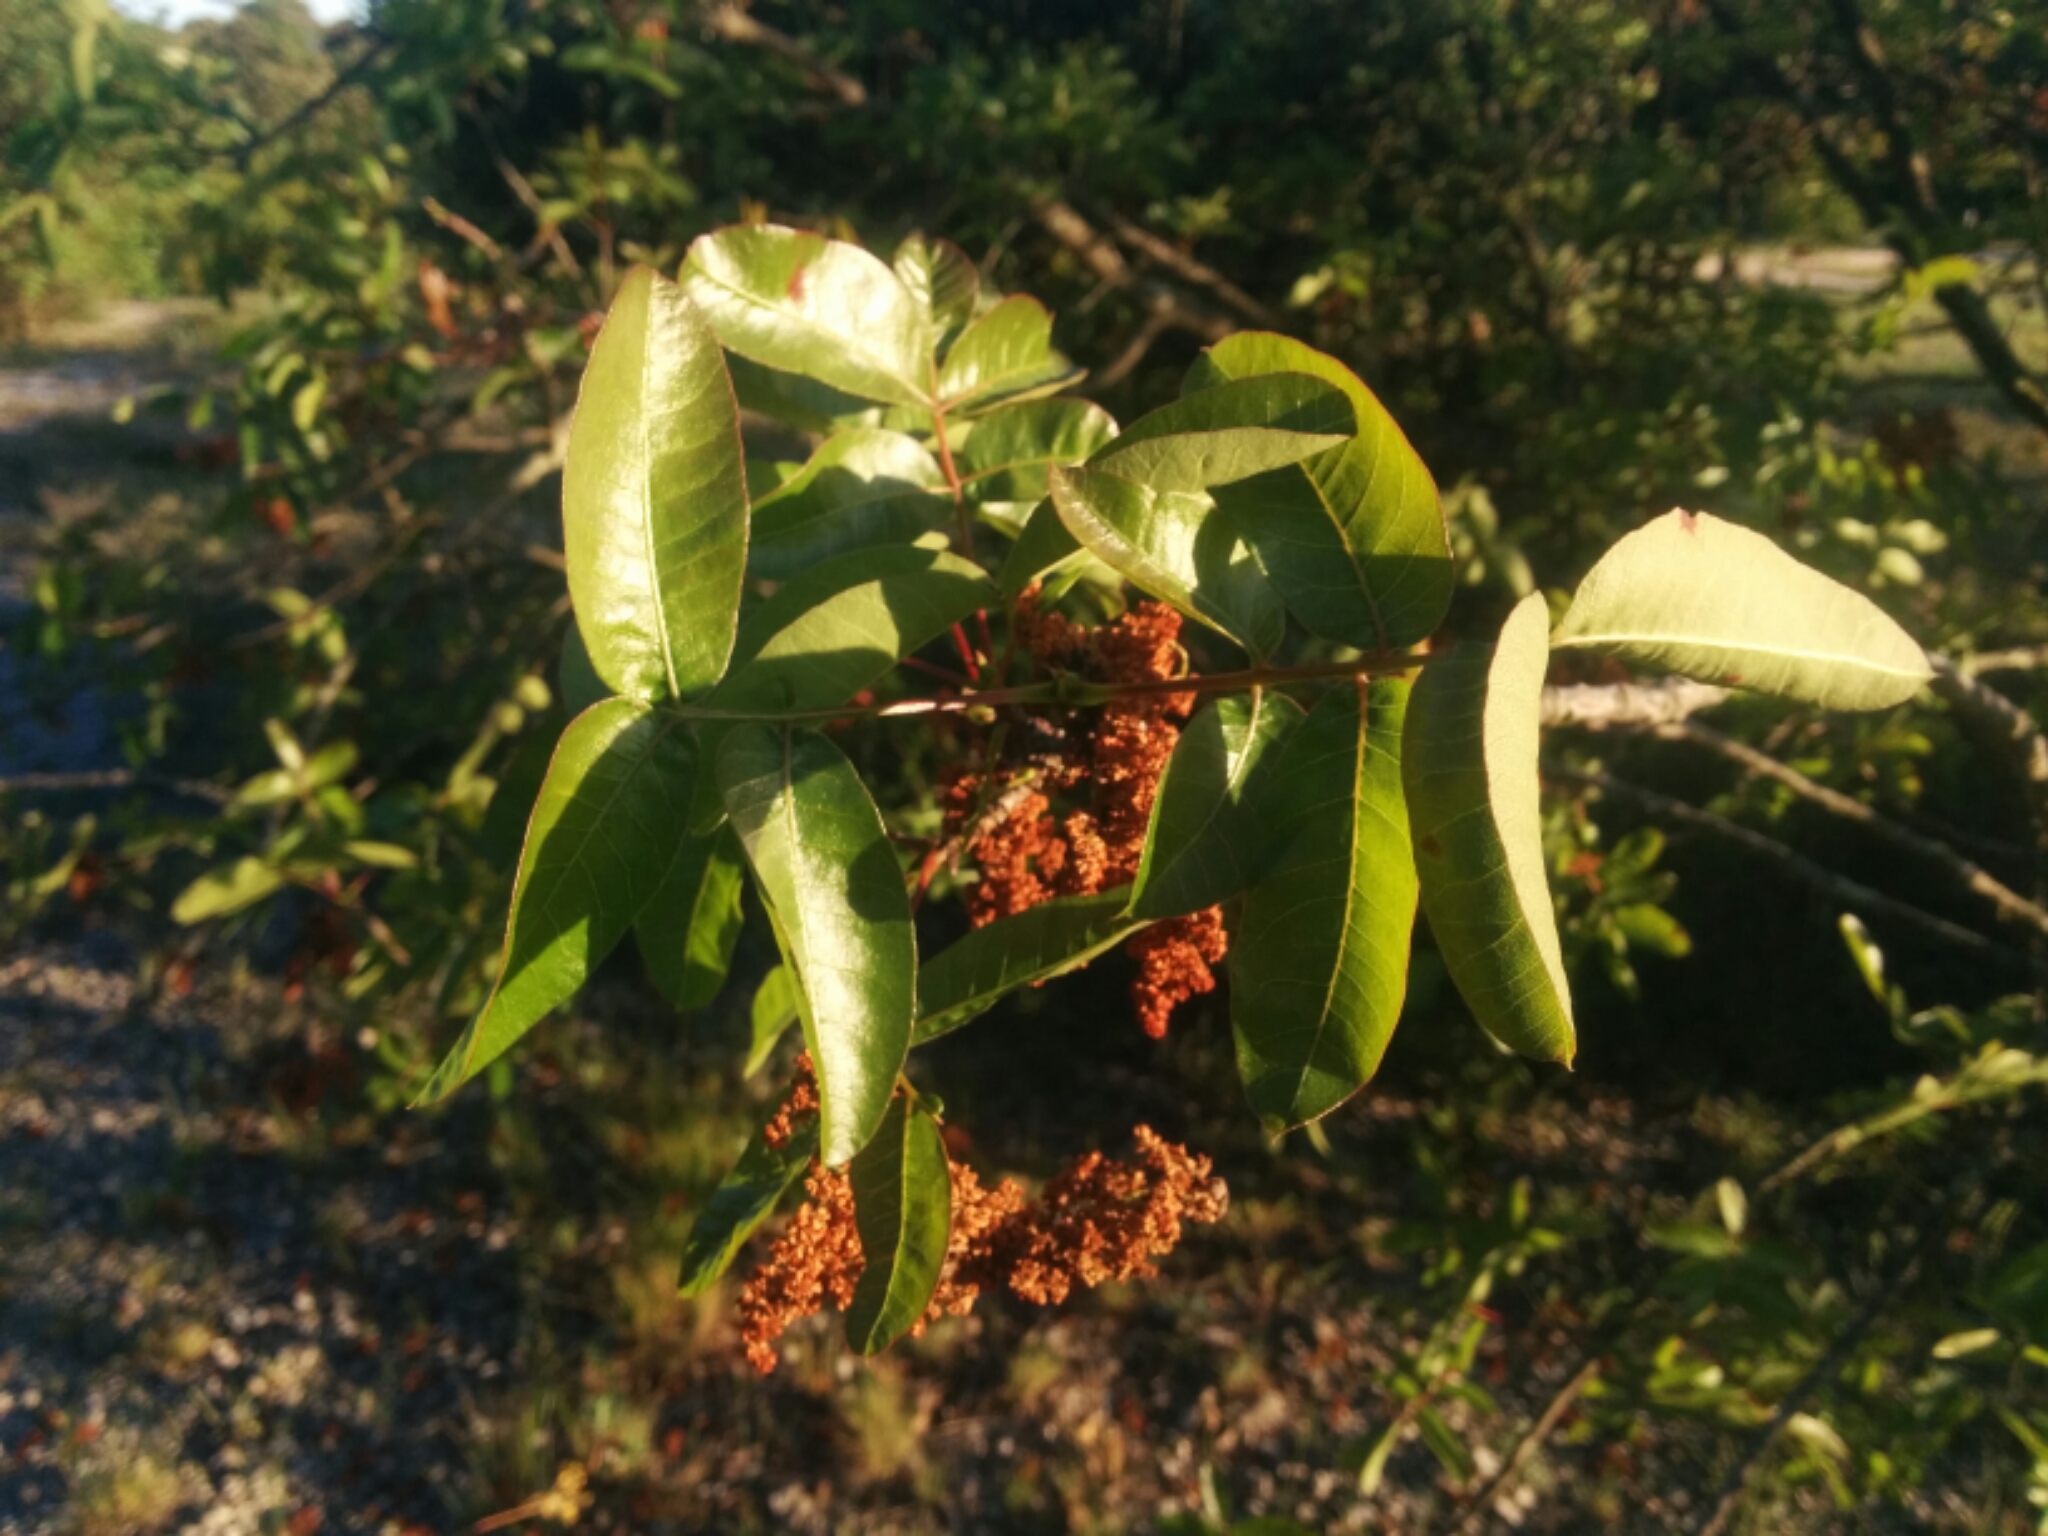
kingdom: Plantae
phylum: Tracheophyta
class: Magnoliopsida
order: Sapindales
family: Anacardiaceae
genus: Pistacia
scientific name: Pistacia terebinthus
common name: Terebinth
